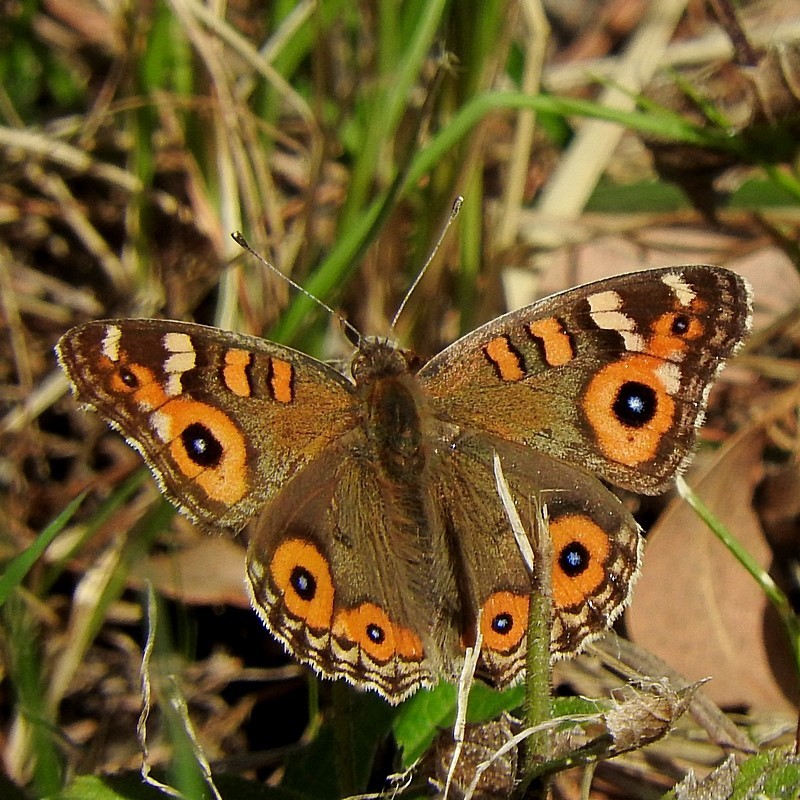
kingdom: Animalia
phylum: Arthropoda
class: Insecta
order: Lepidoptera
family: Nymphalidae
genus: Junonia
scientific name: Junonia villida
